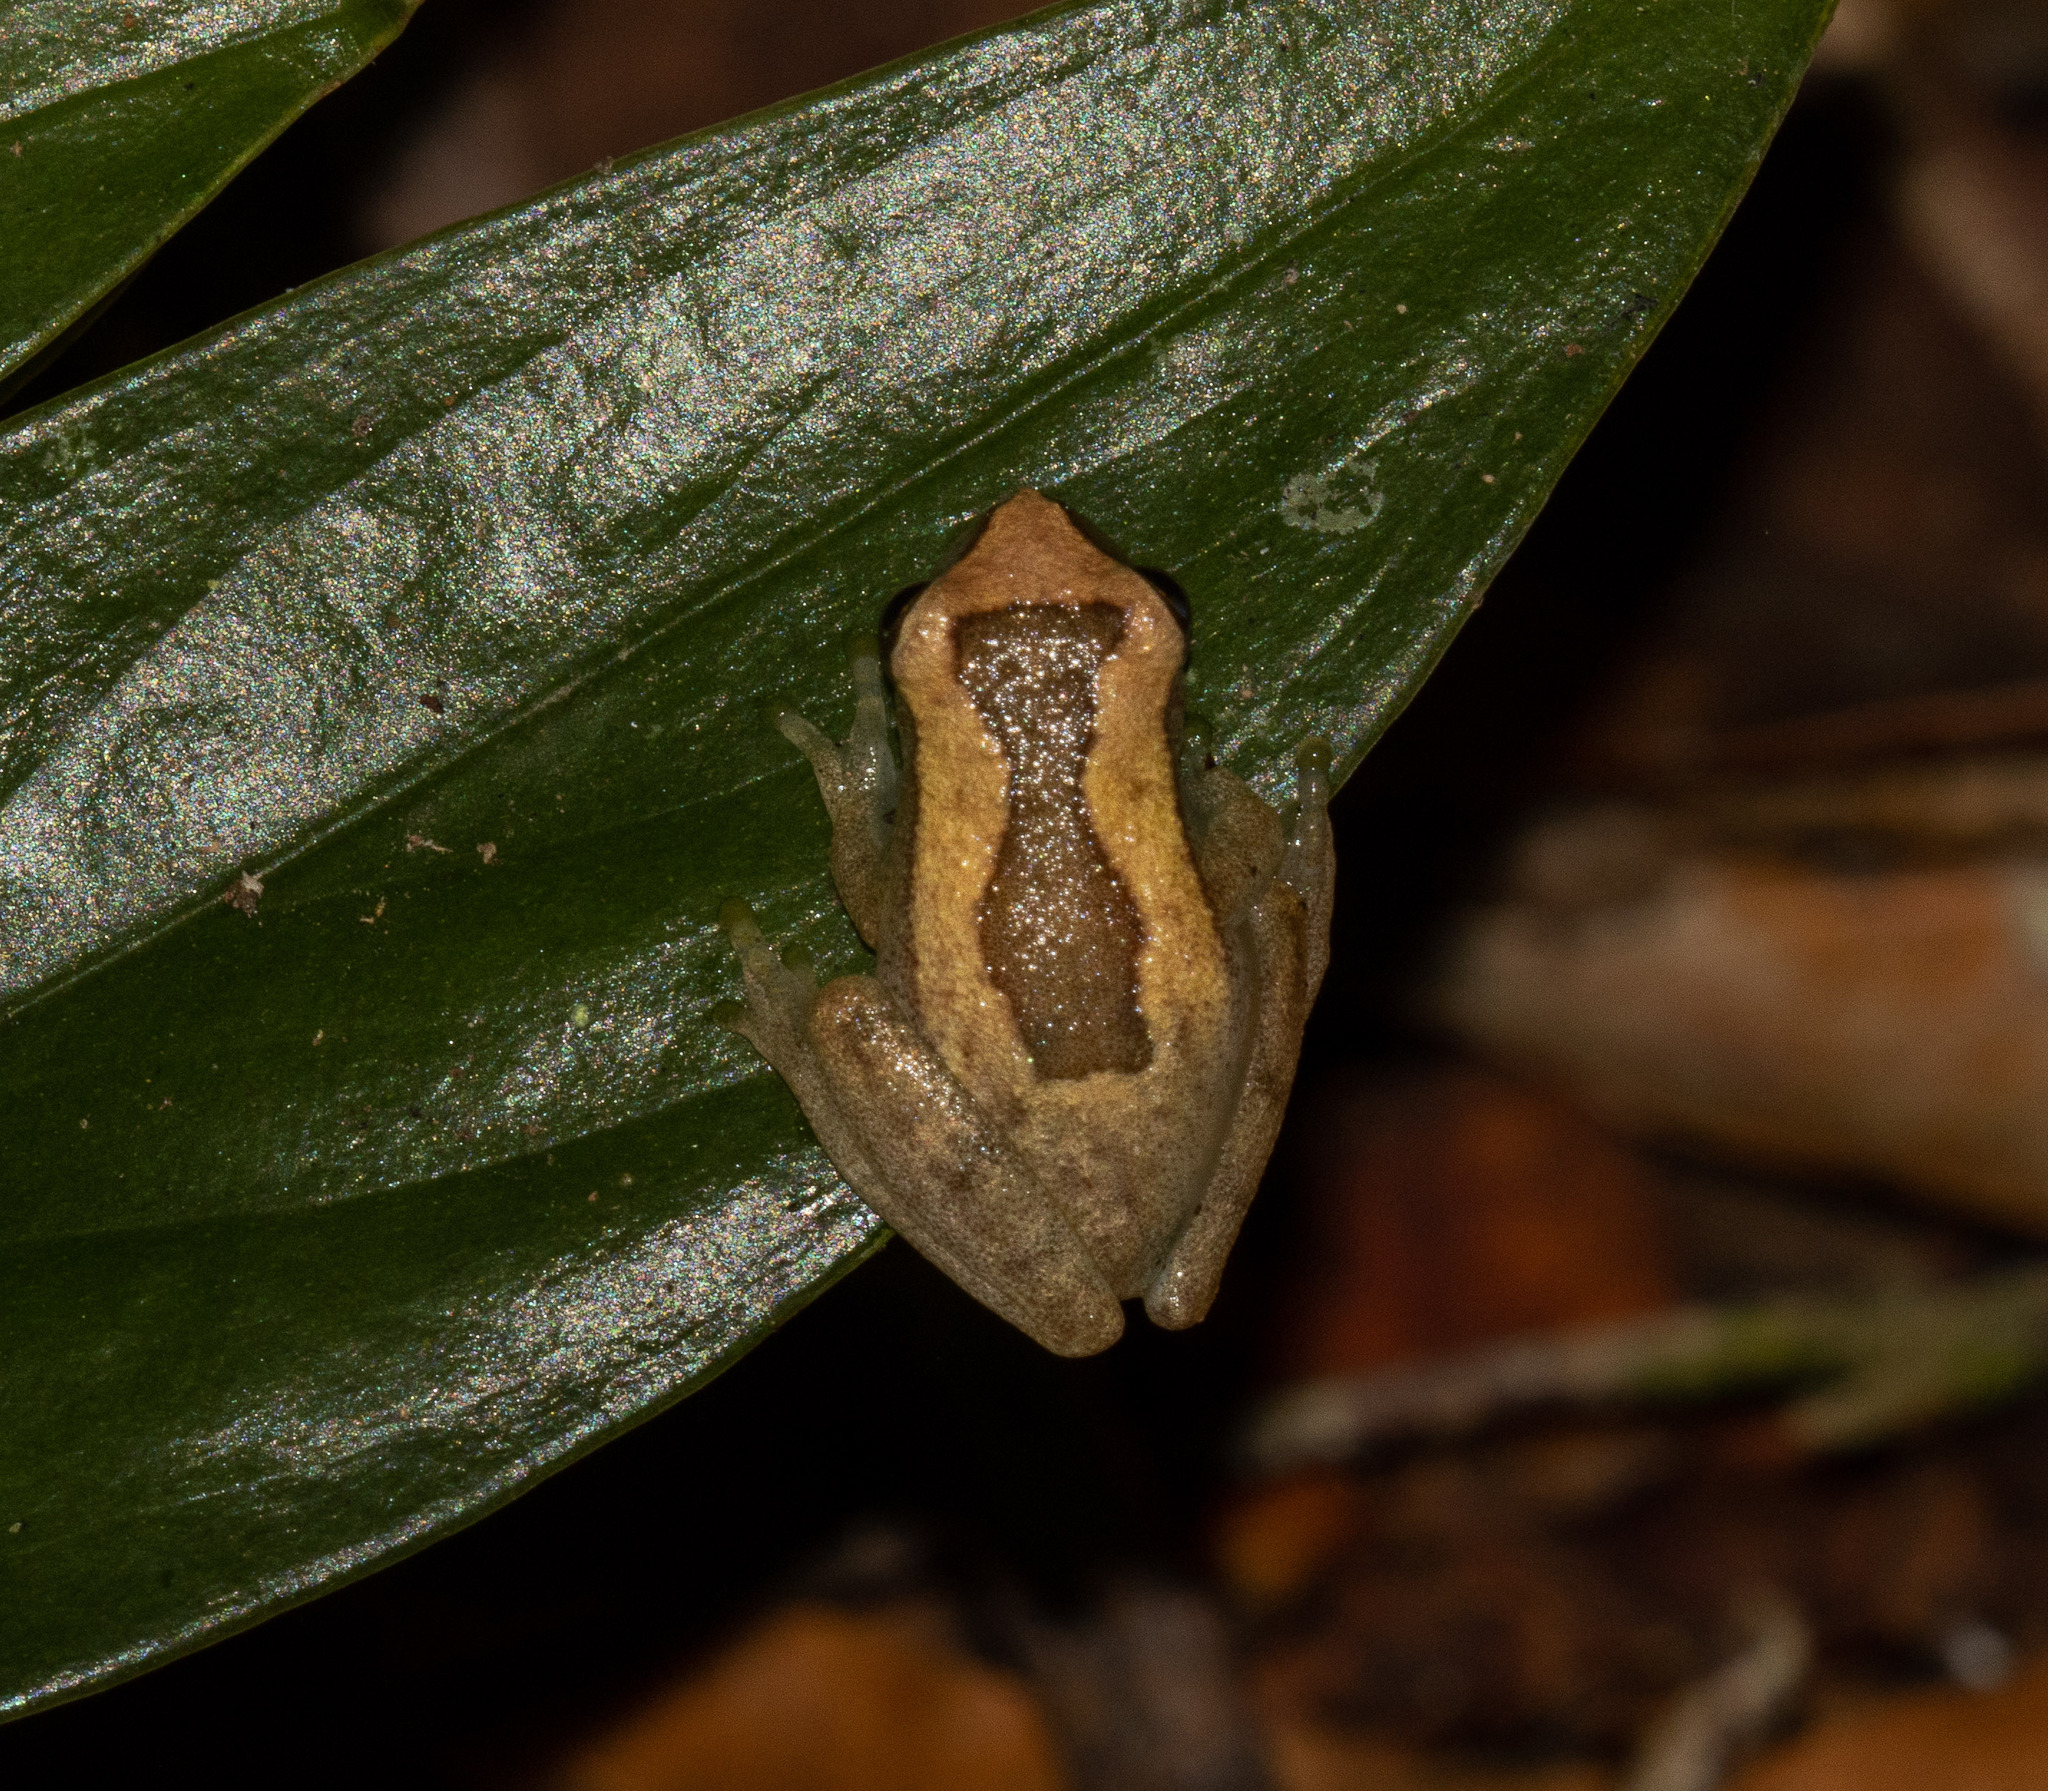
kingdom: Animalia
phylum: Chordata
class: Amphibia
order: Anura
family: Hylidae
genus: Dendropsophus
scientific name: Dendropsophus elegans
